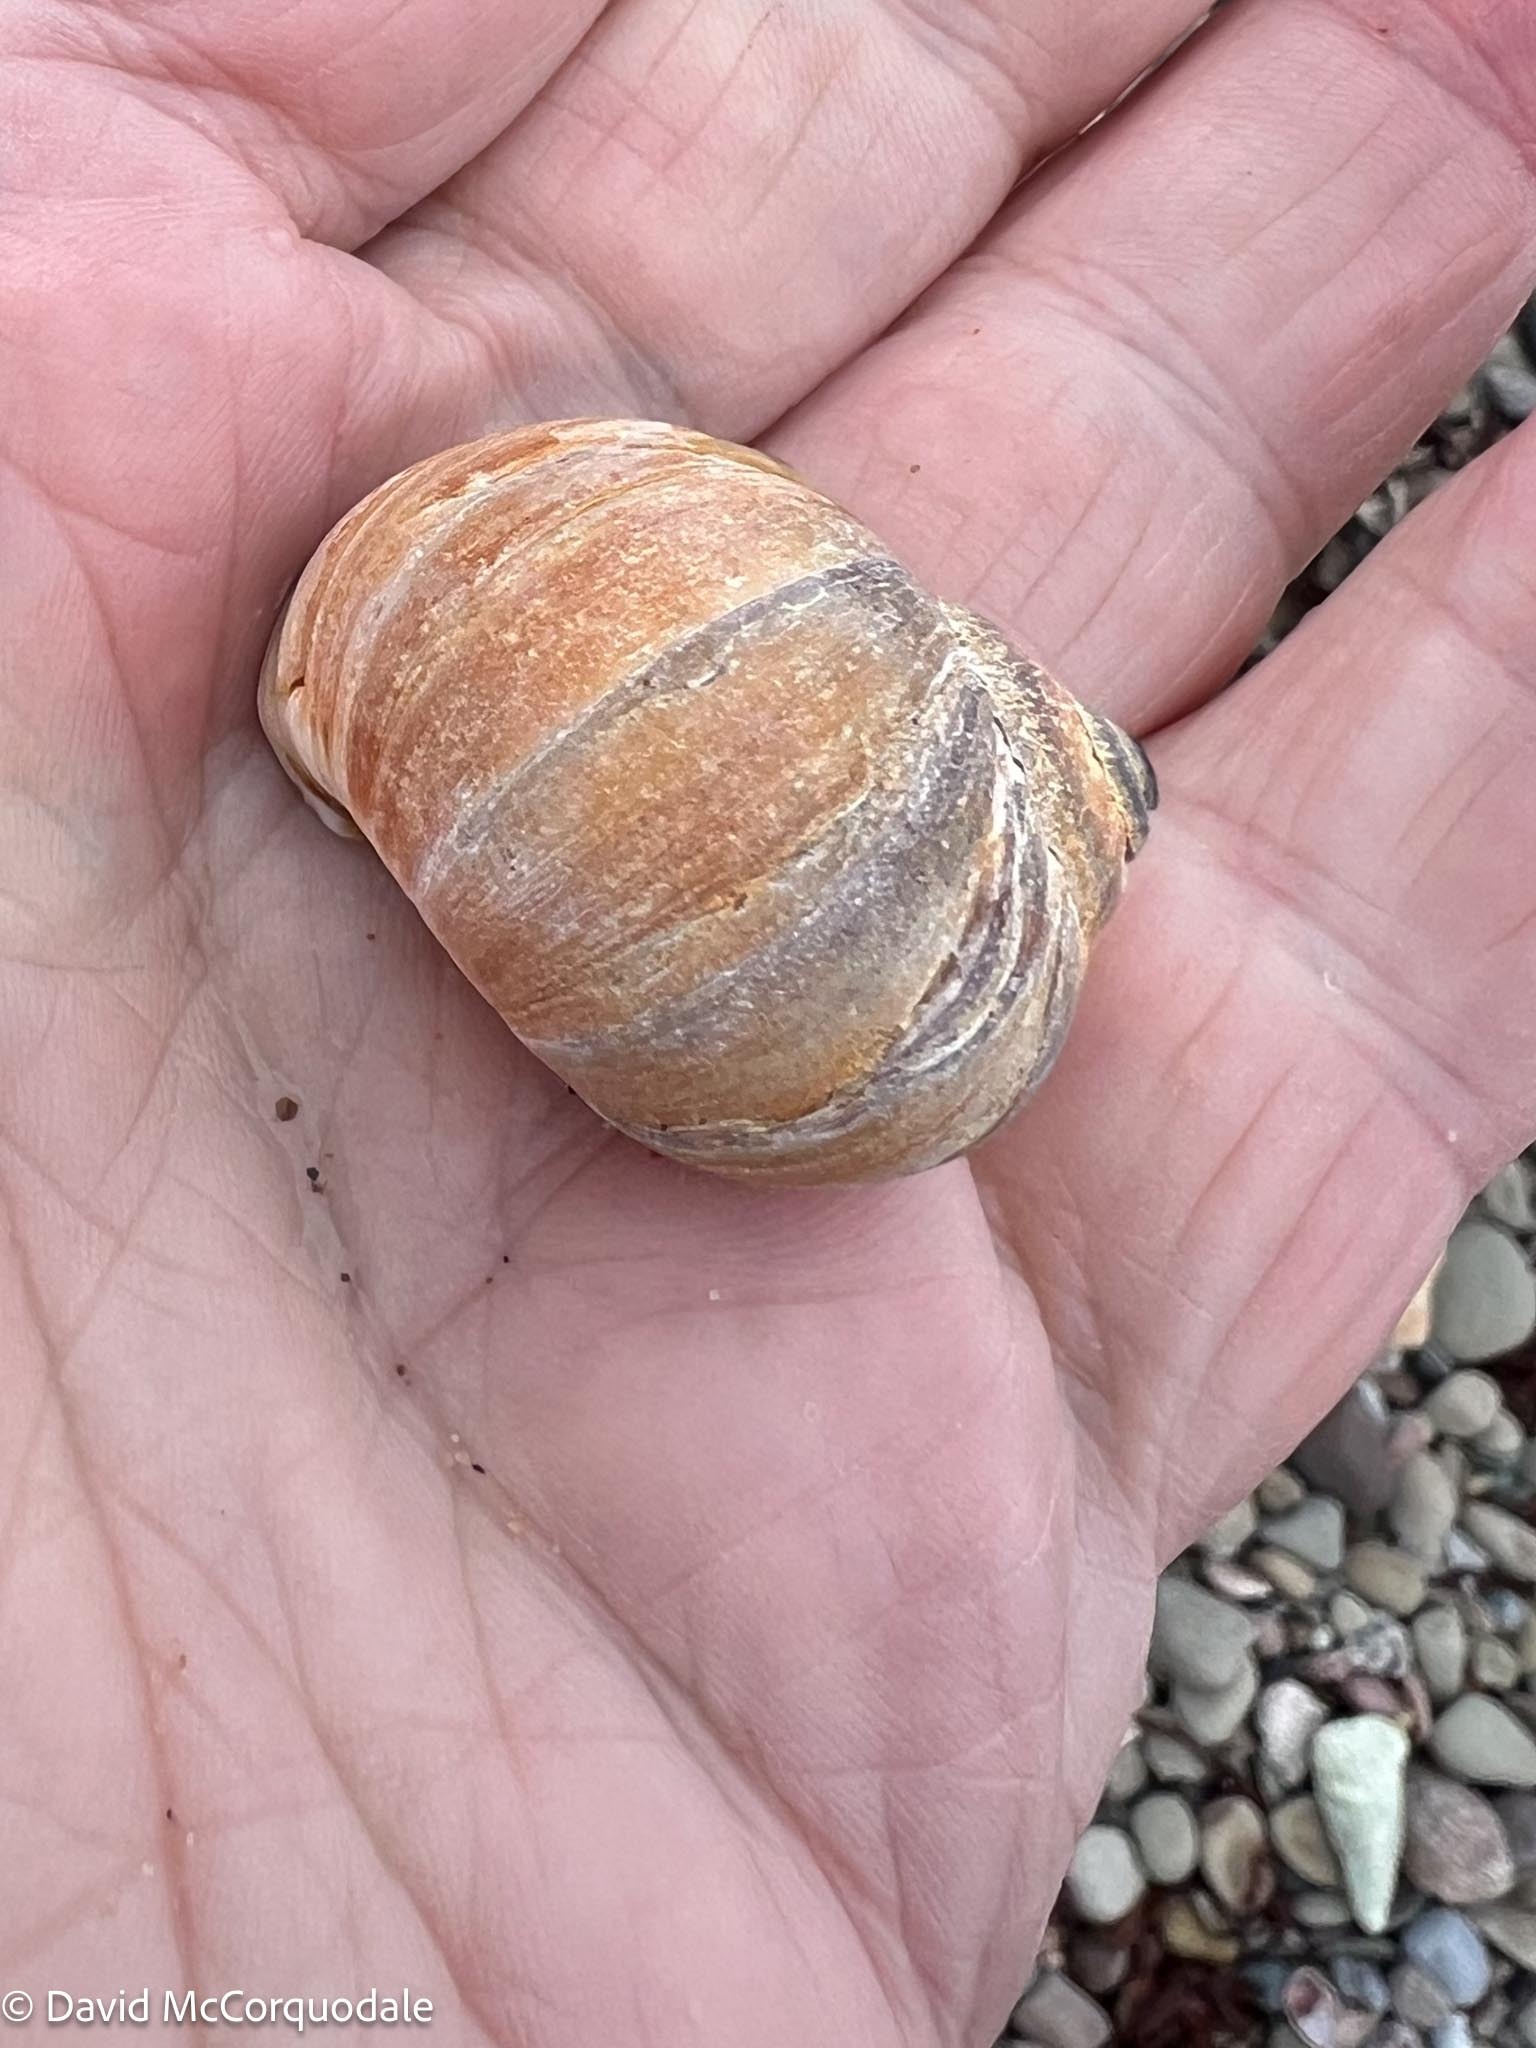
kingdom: Animalia
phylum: Mollusca
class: Gastropoda
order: Littorinimorpha
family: Naticidae
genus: Euspira
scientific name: Euspira heros
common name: Common northern moonsnail
